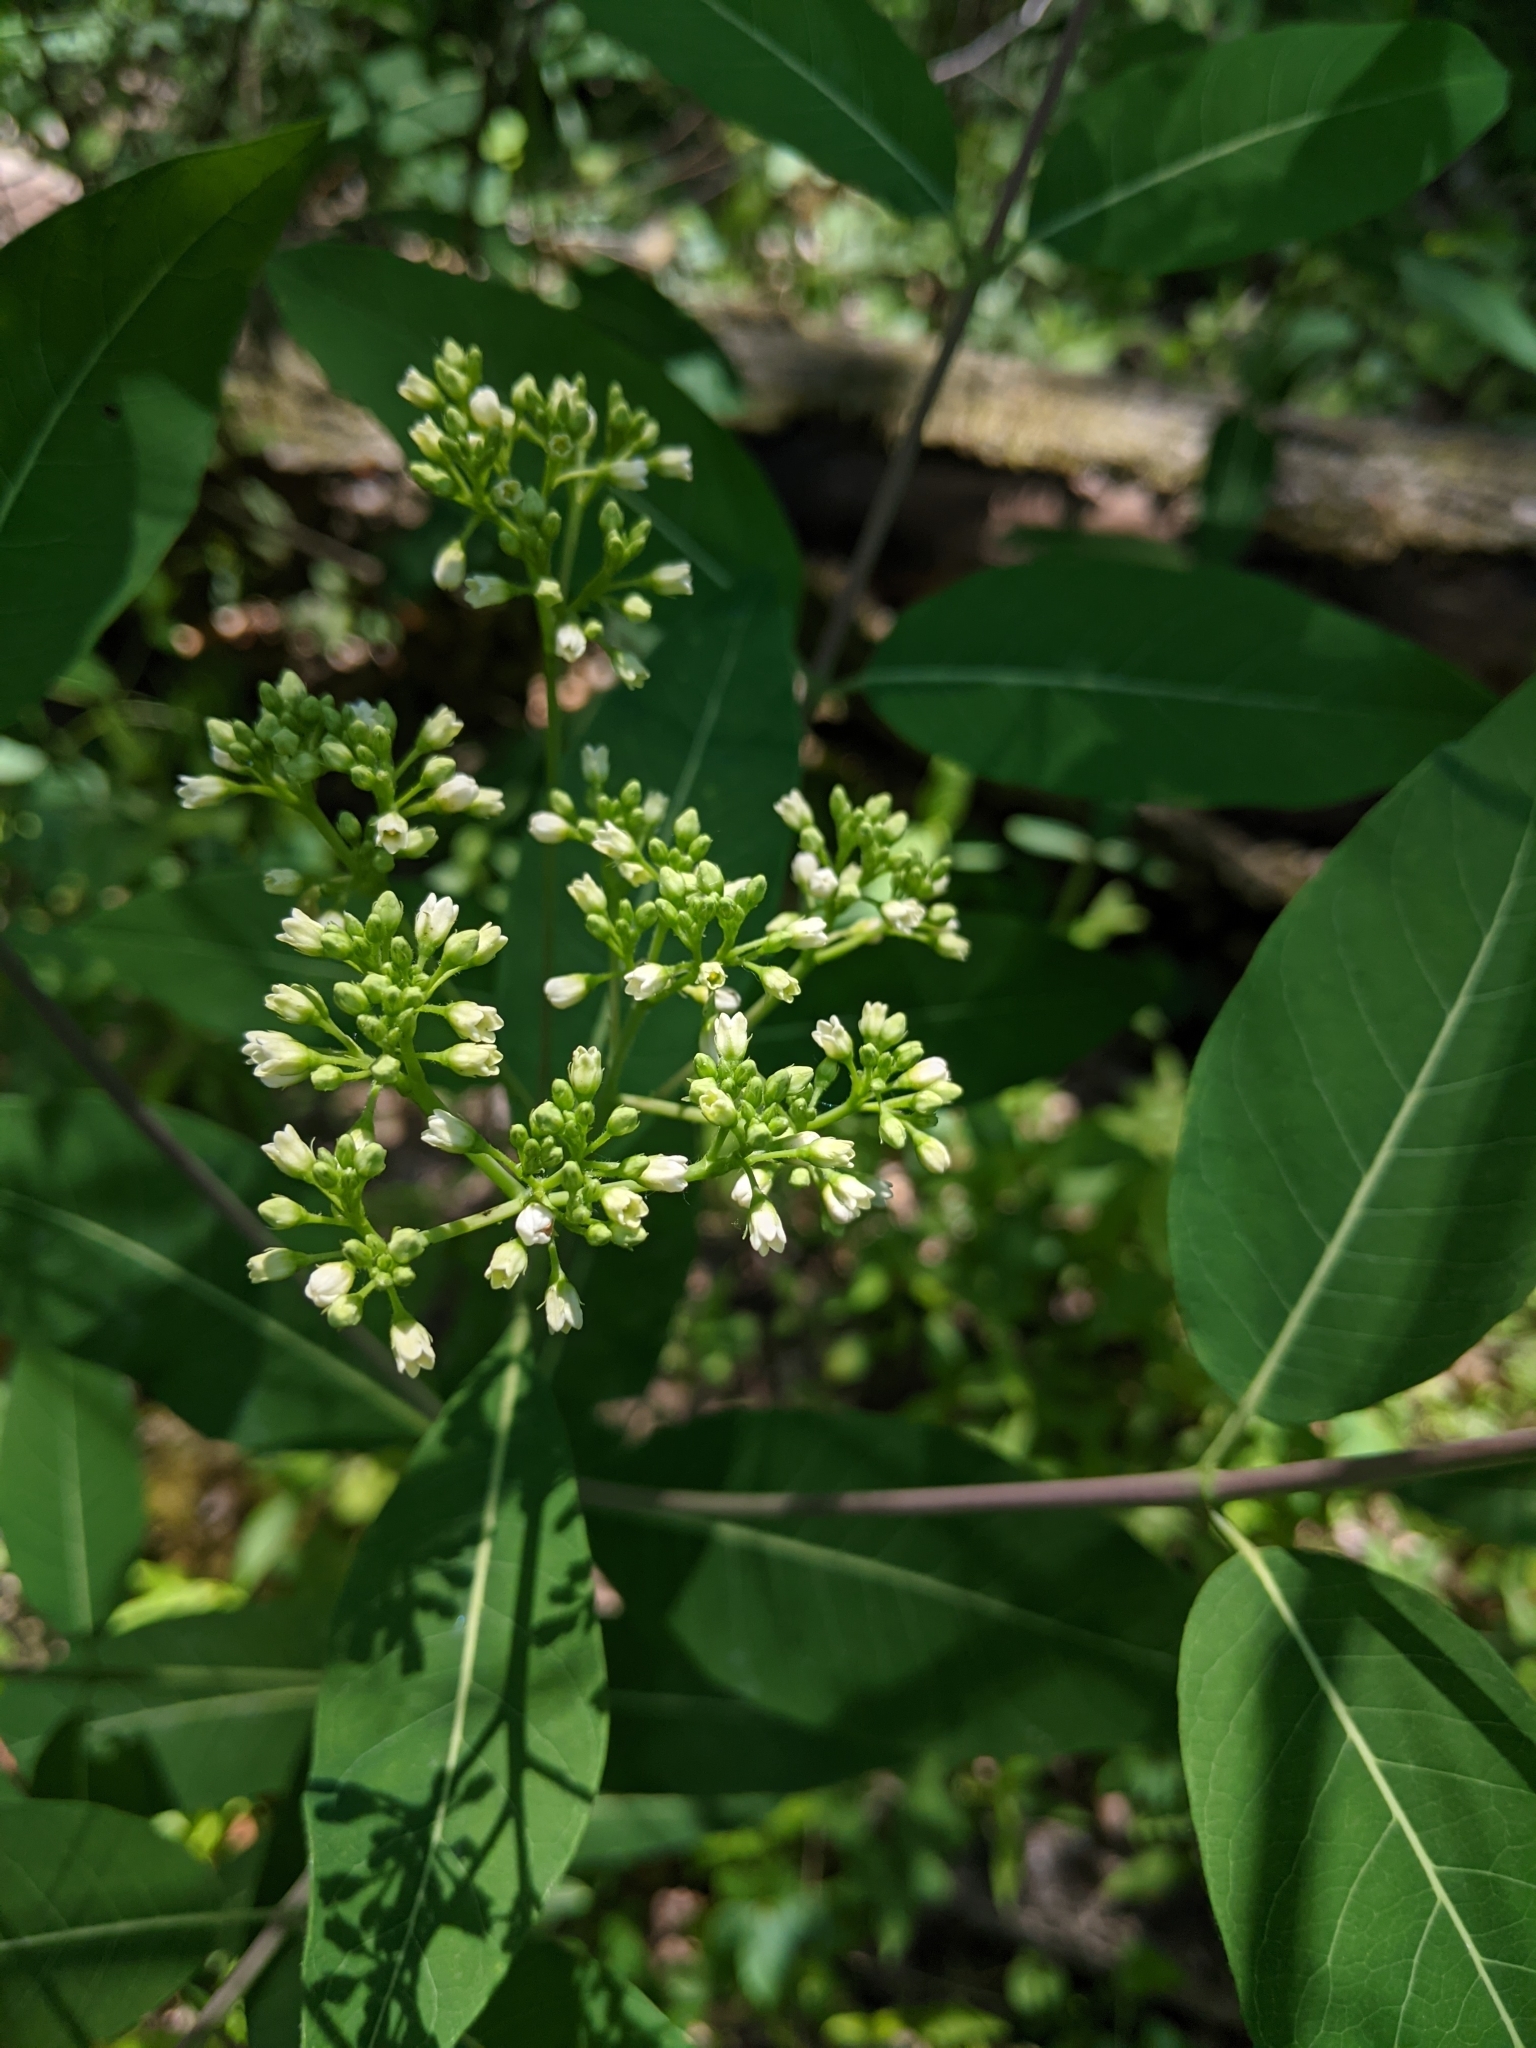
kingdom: Plantae
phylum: Tracheophyta
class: Magnoliopsida
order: Gentianales
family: Apocynaceae
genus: Apocynum
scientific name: Apocynum cannabinum
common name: Hemp dogbane
